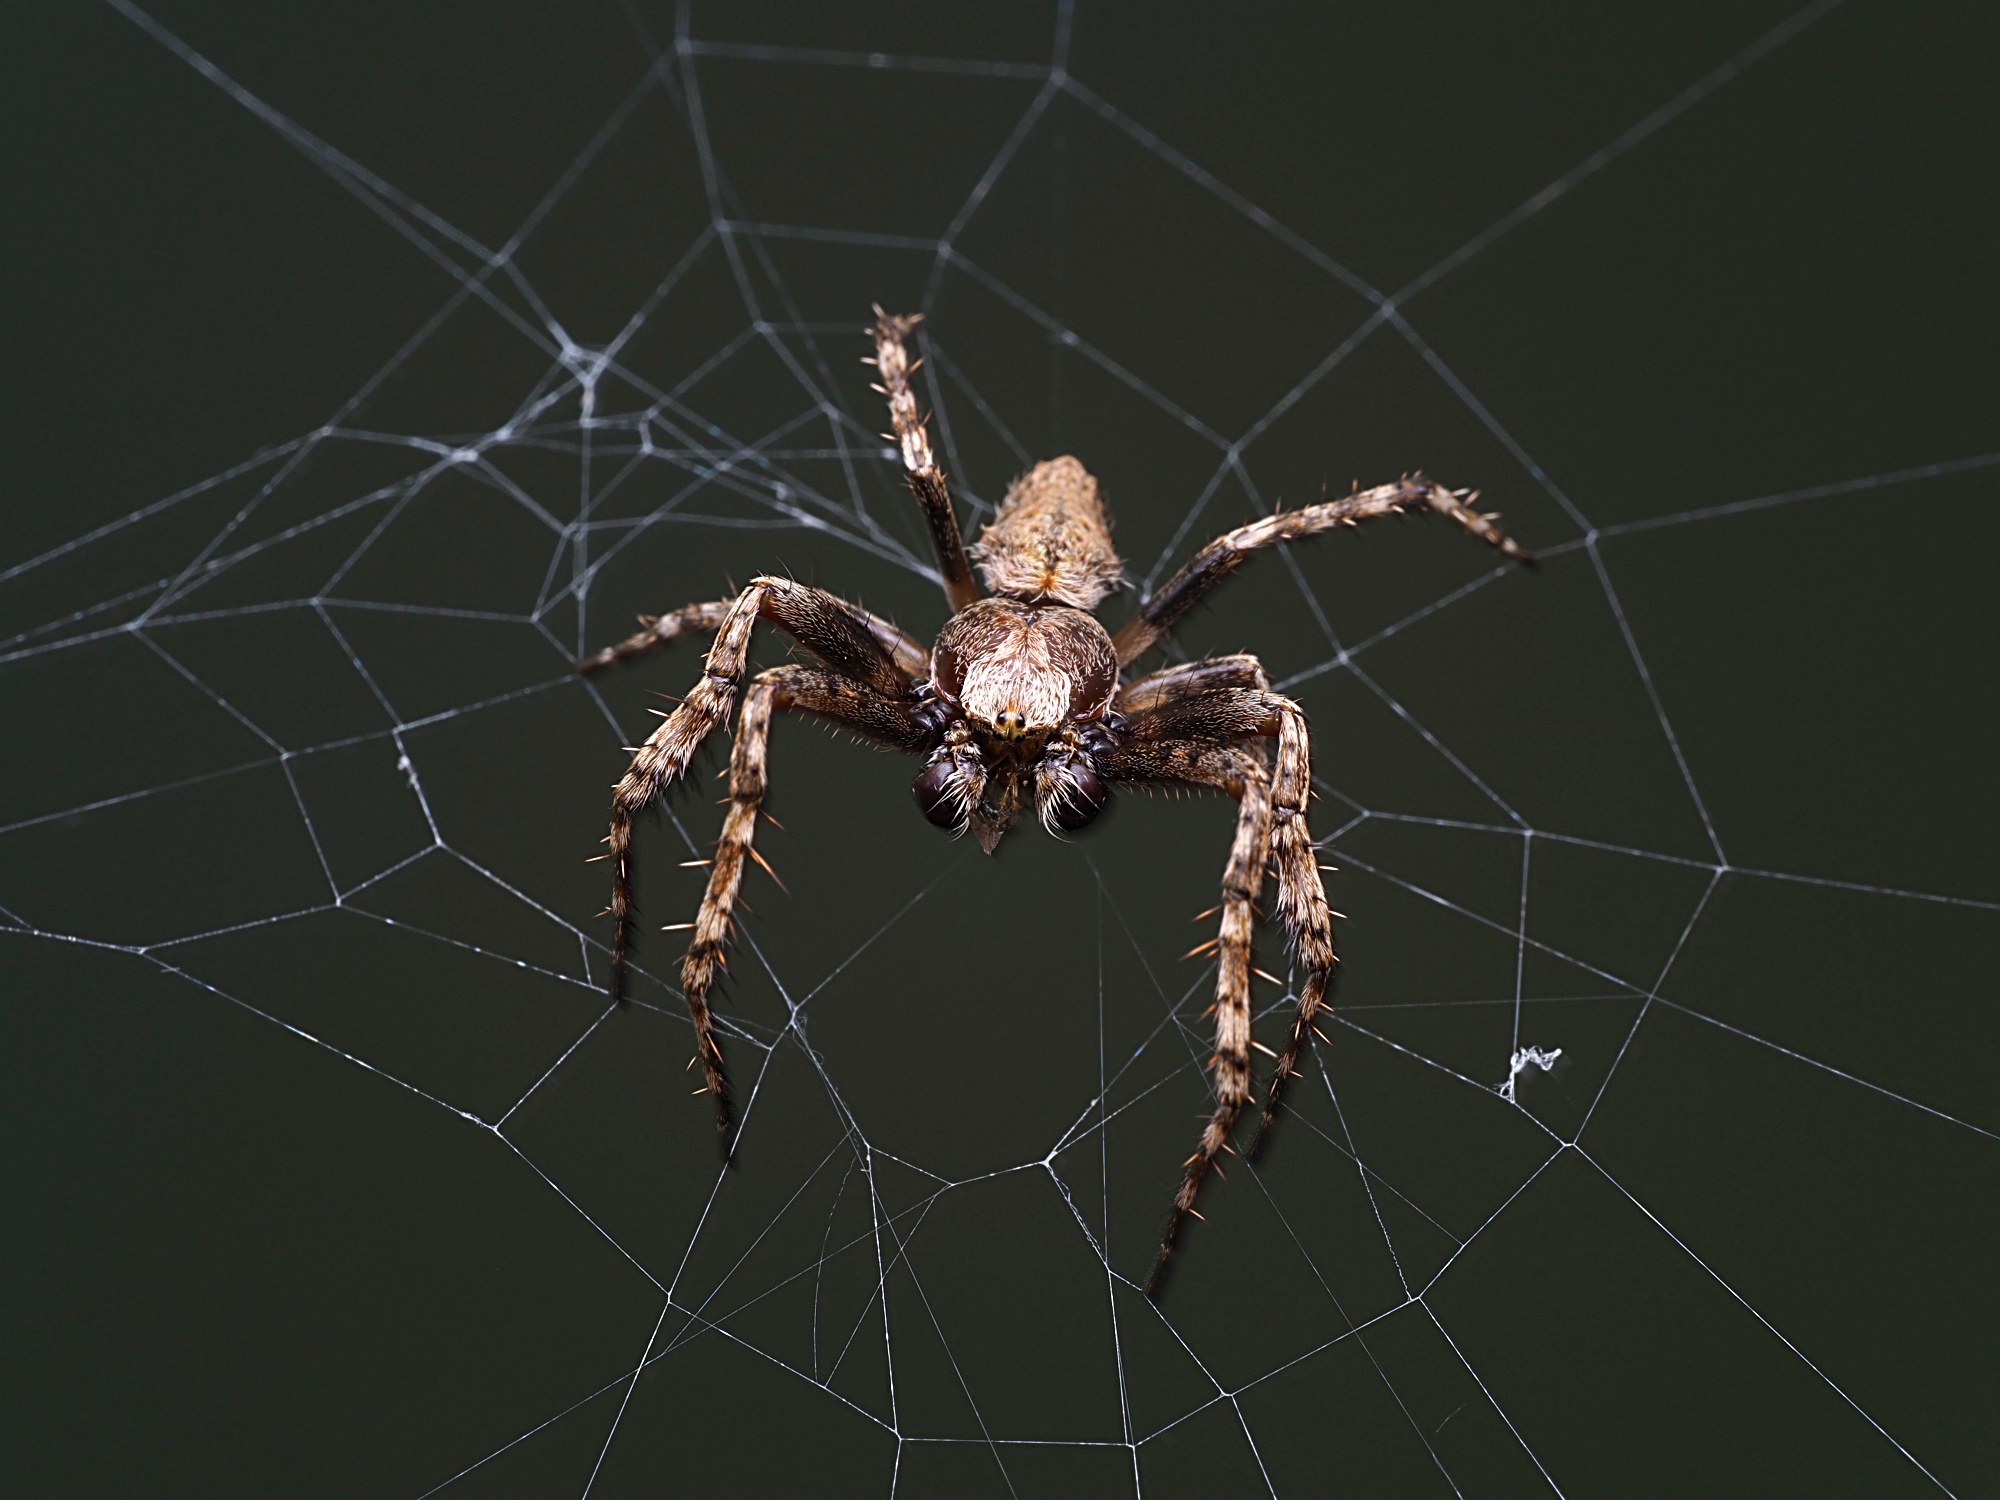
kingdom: Animalia
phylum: Arthropoda
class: Arachnida
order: Araneae
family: Araneidae
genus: Eriophora
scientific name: Eriophora pustulosa
